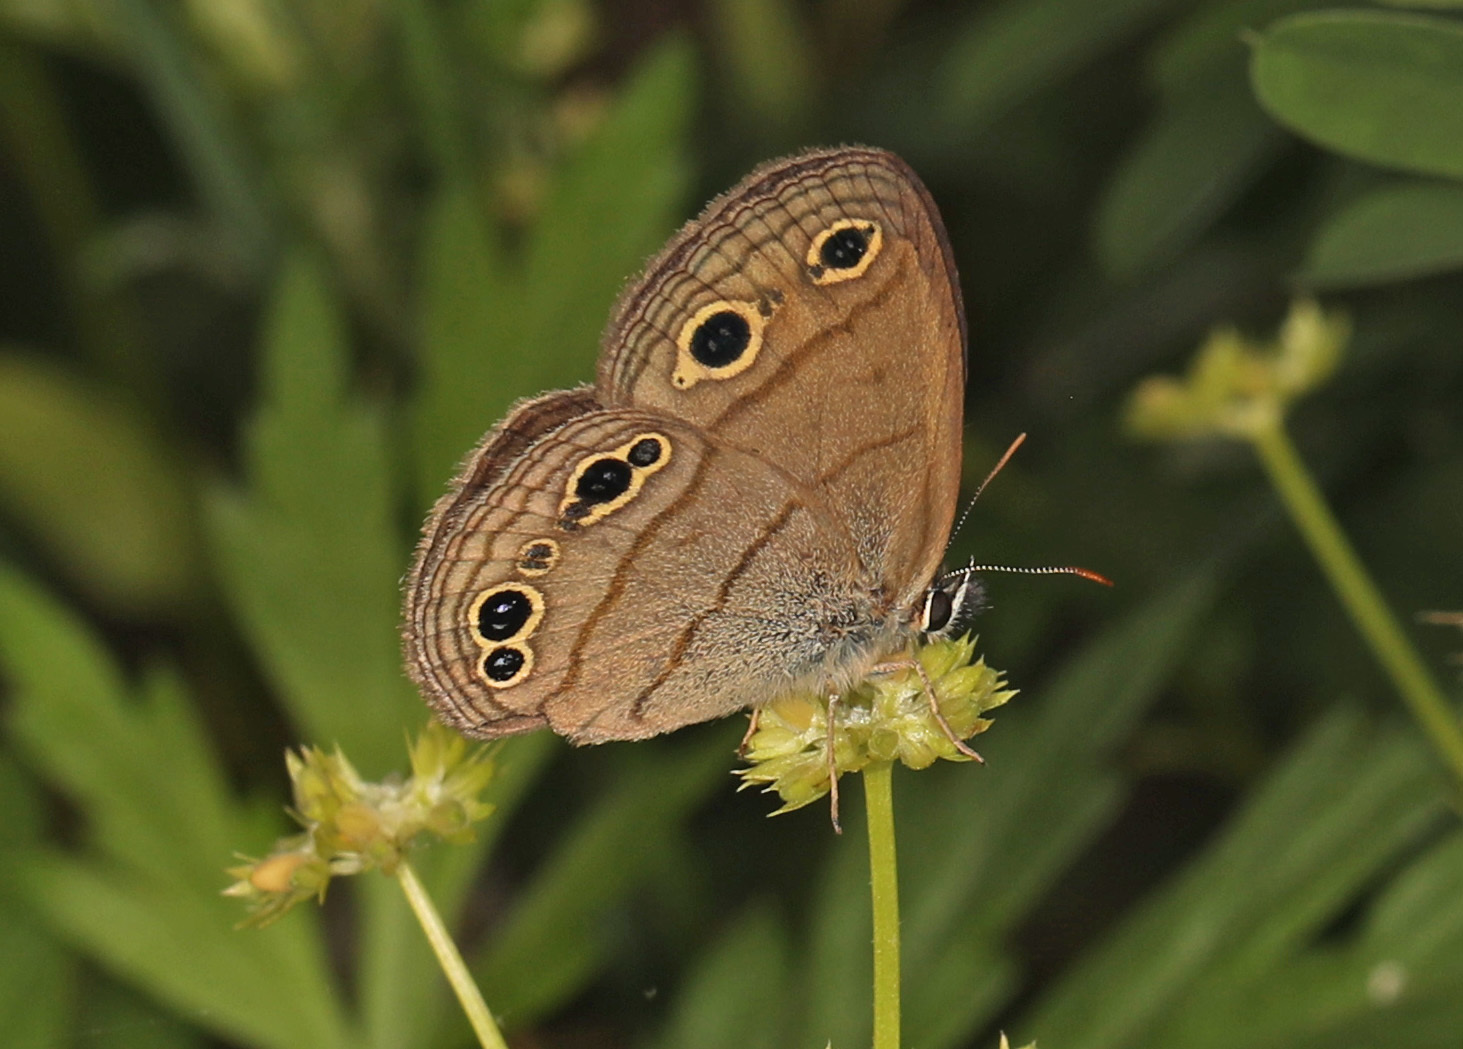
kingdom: Animalia
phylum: Arthropoda
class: Insecta
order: Lepidoptera
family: Nymphalidae
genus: Euptychia
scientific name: Euptychia cymela
